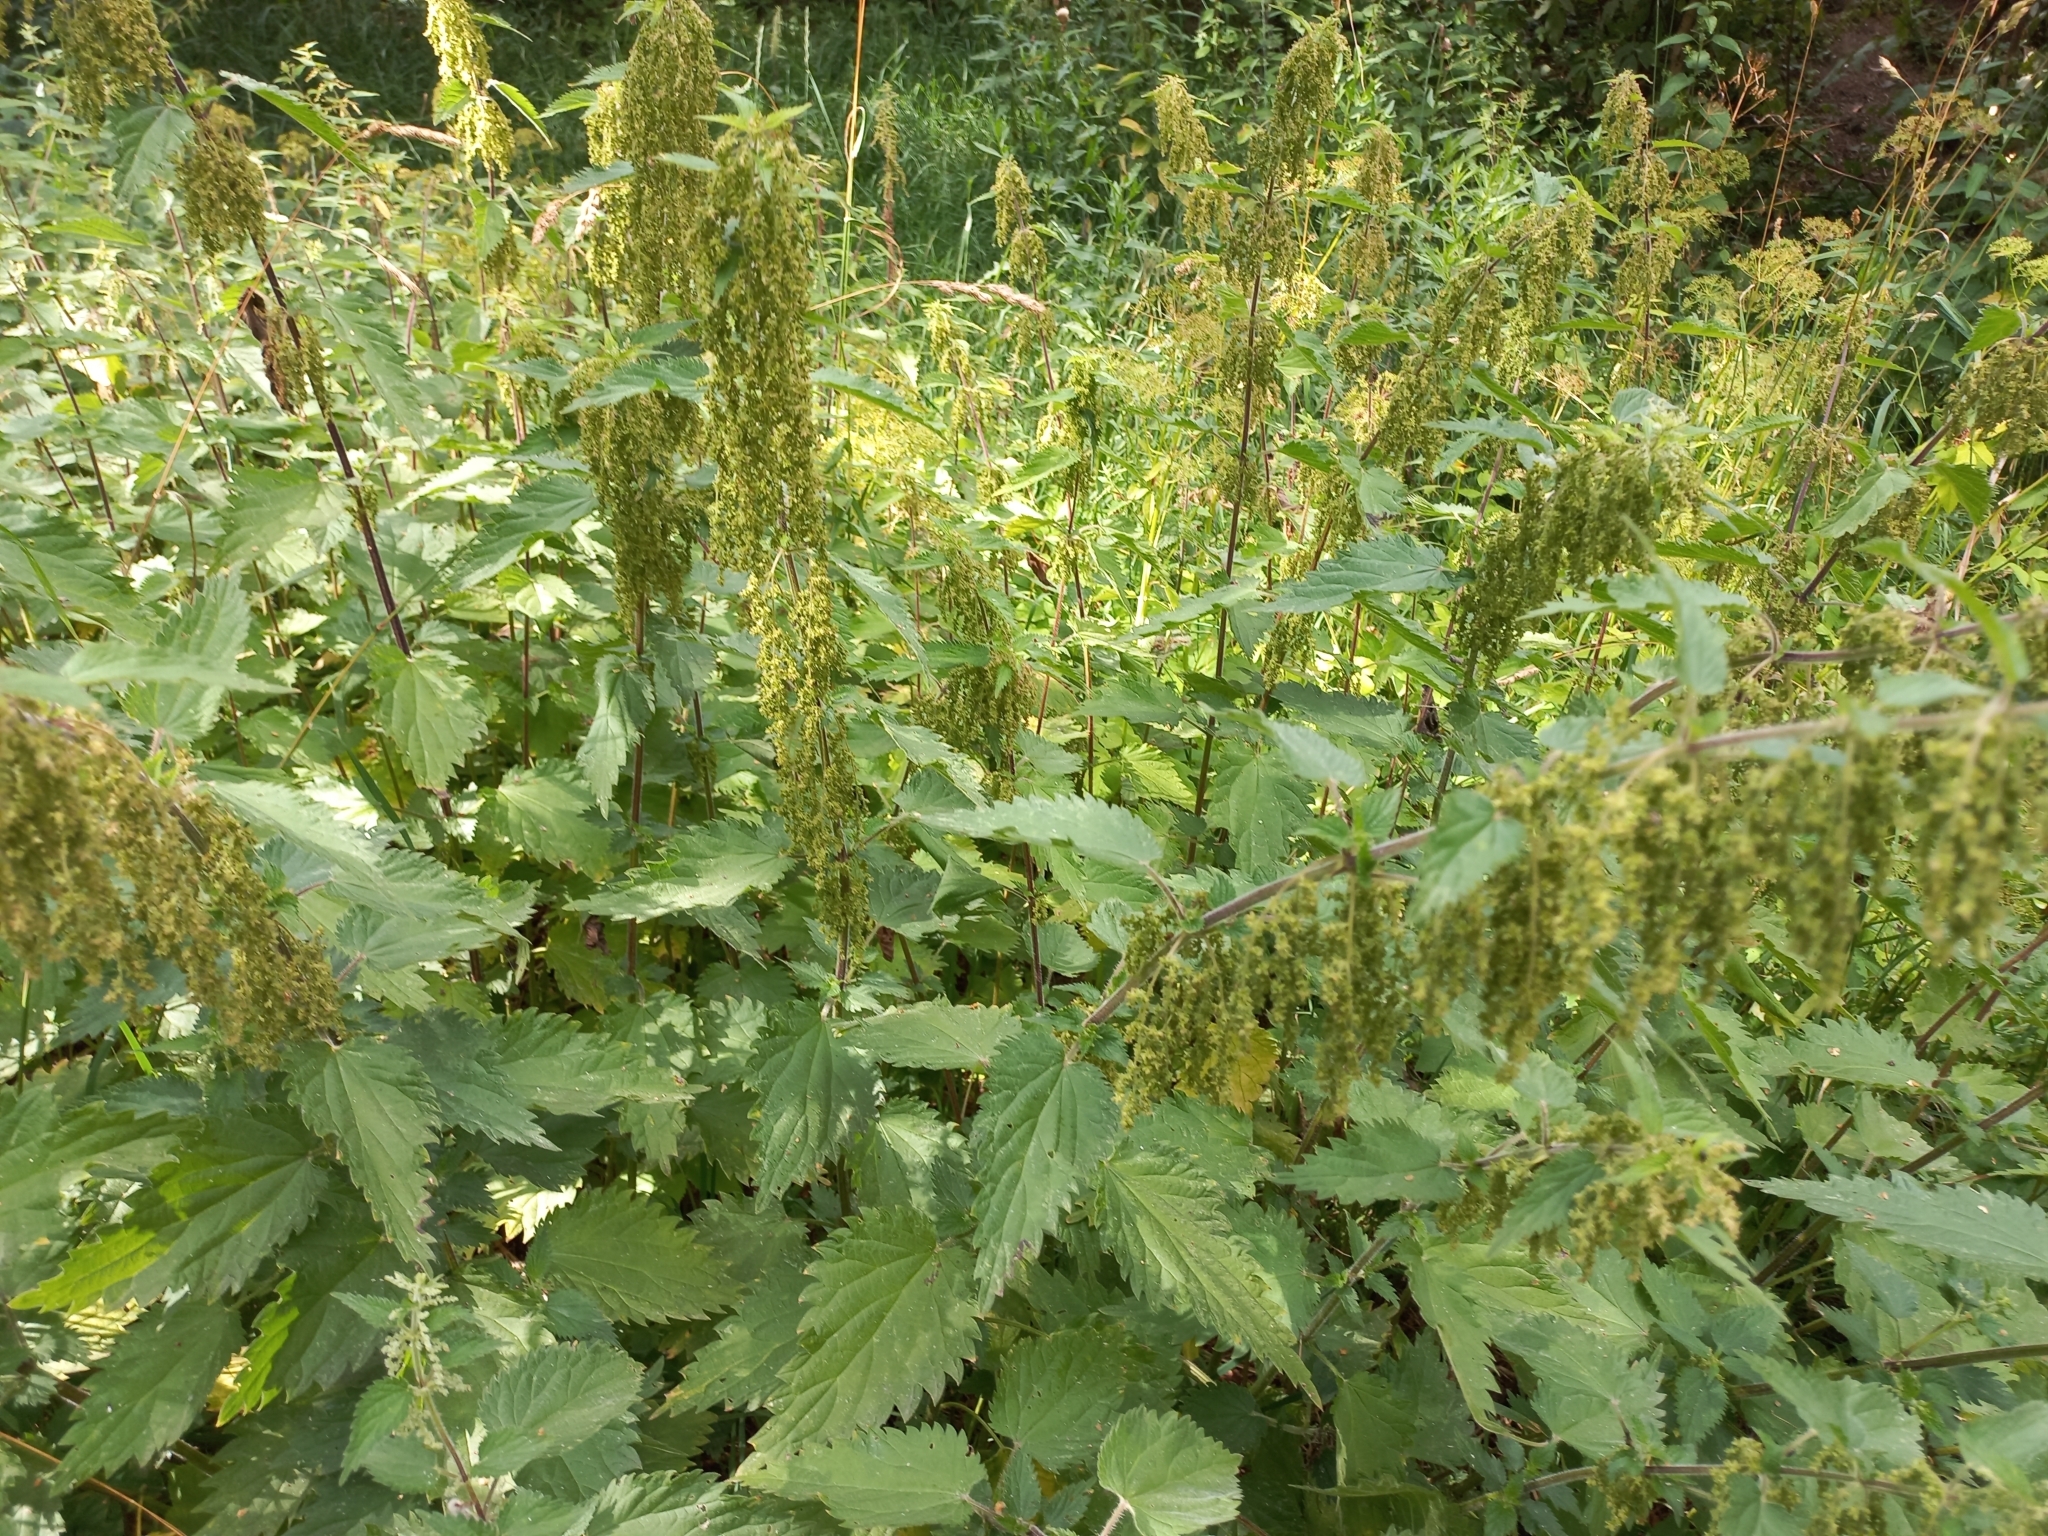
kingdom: Plantae
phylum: Tracheophyta
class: Magnoliopsida
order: Rosales
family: Urticaceae
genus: Urtica
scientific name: Urtica dioica
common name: Common nettle
